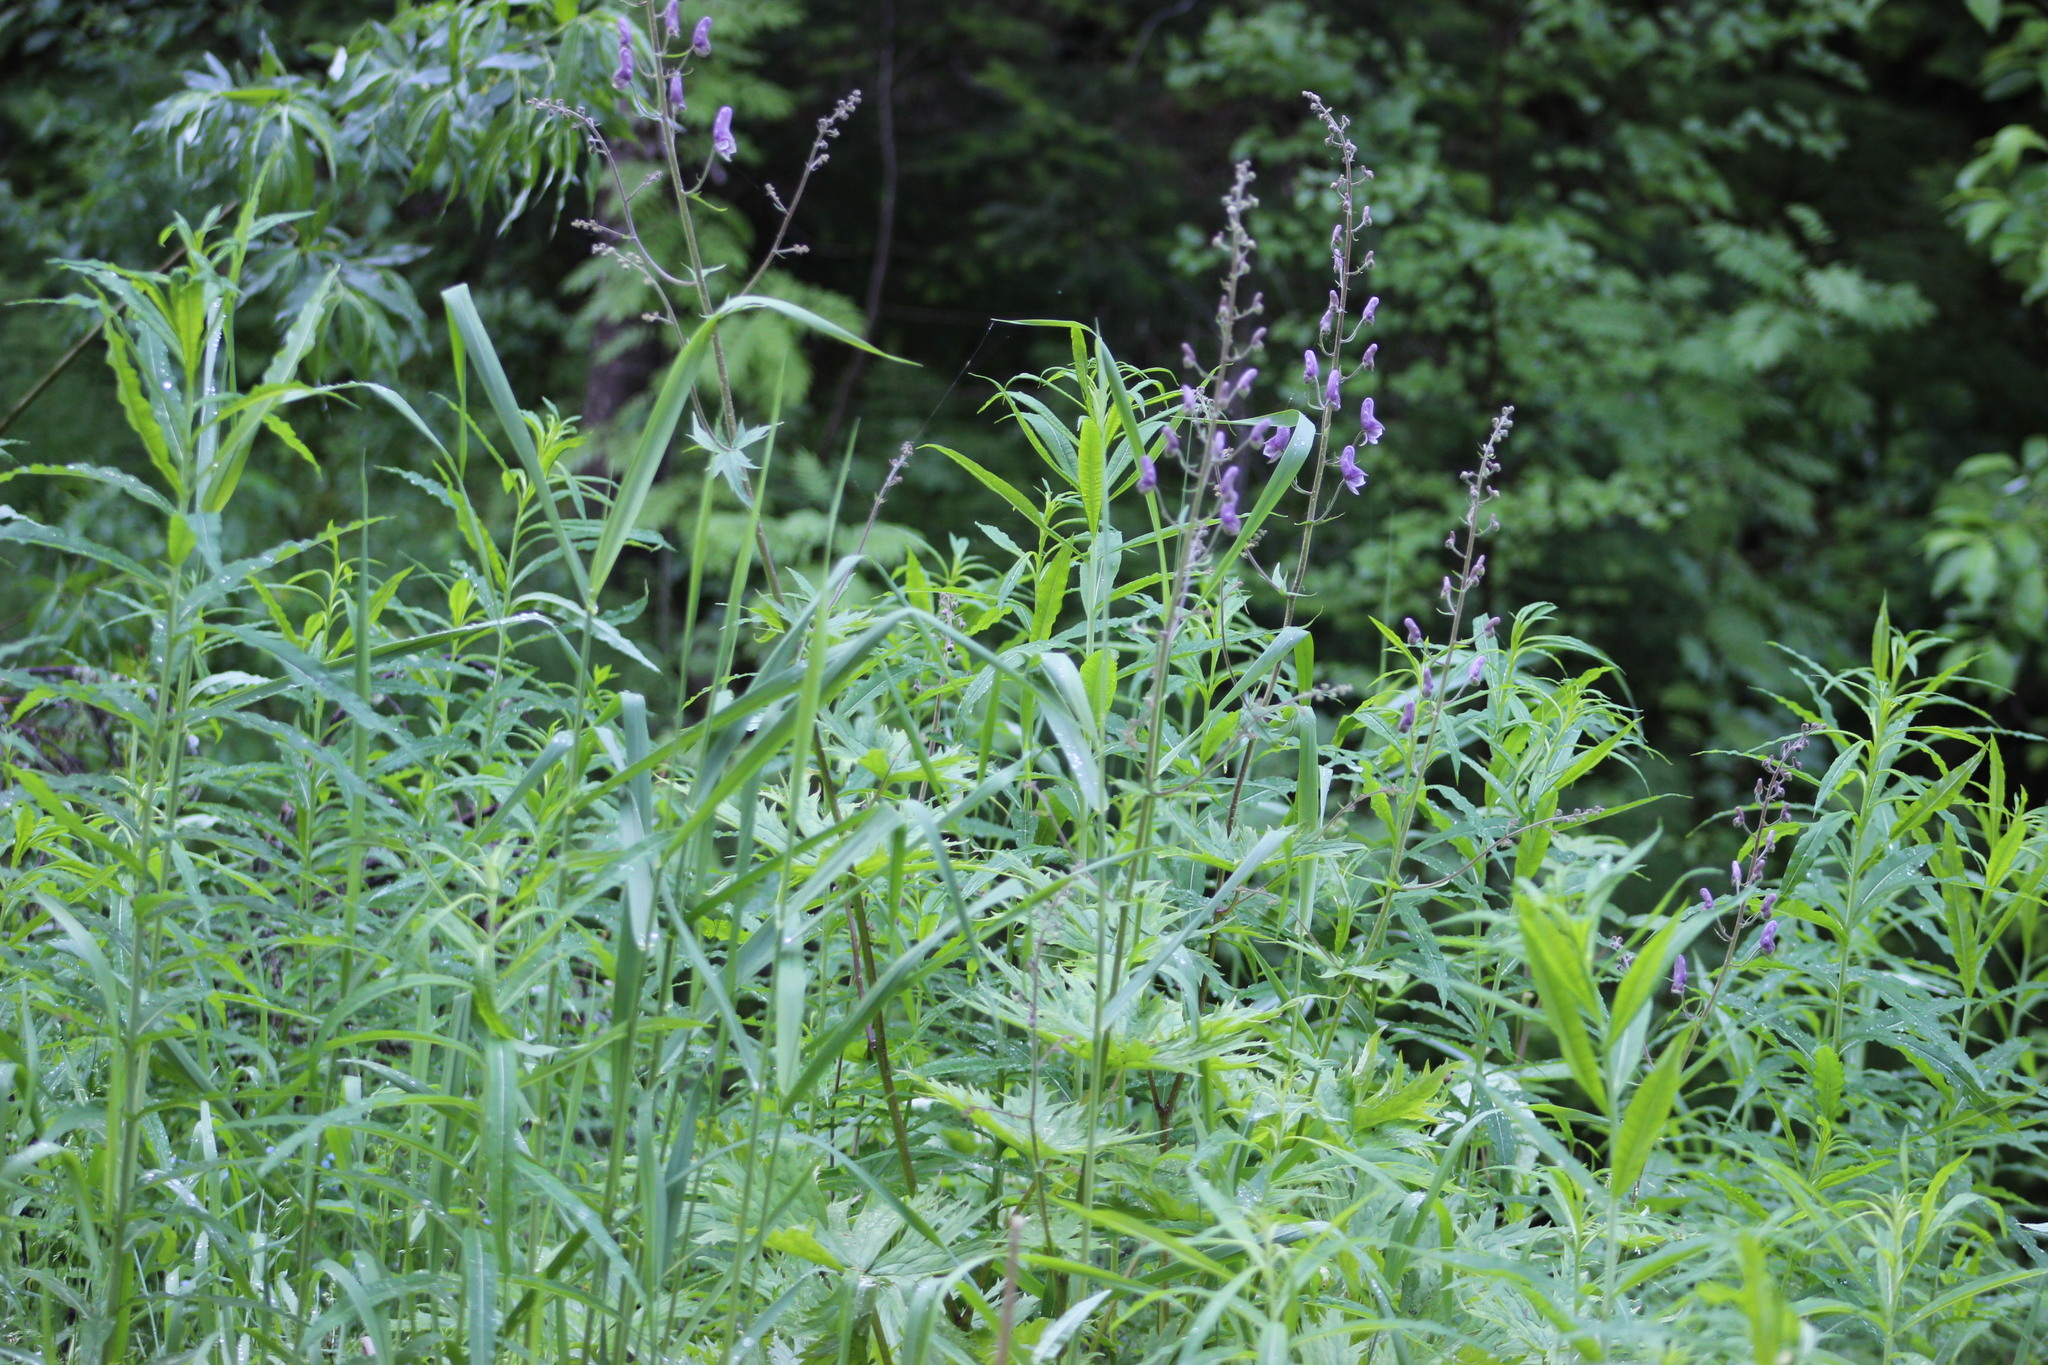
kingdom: Plantae
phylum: Tracheophyta
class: Magnoliopsida
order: Ranunculales
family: Ranunculaceae
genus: Aconitum
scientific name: Aconitum septentrionale
